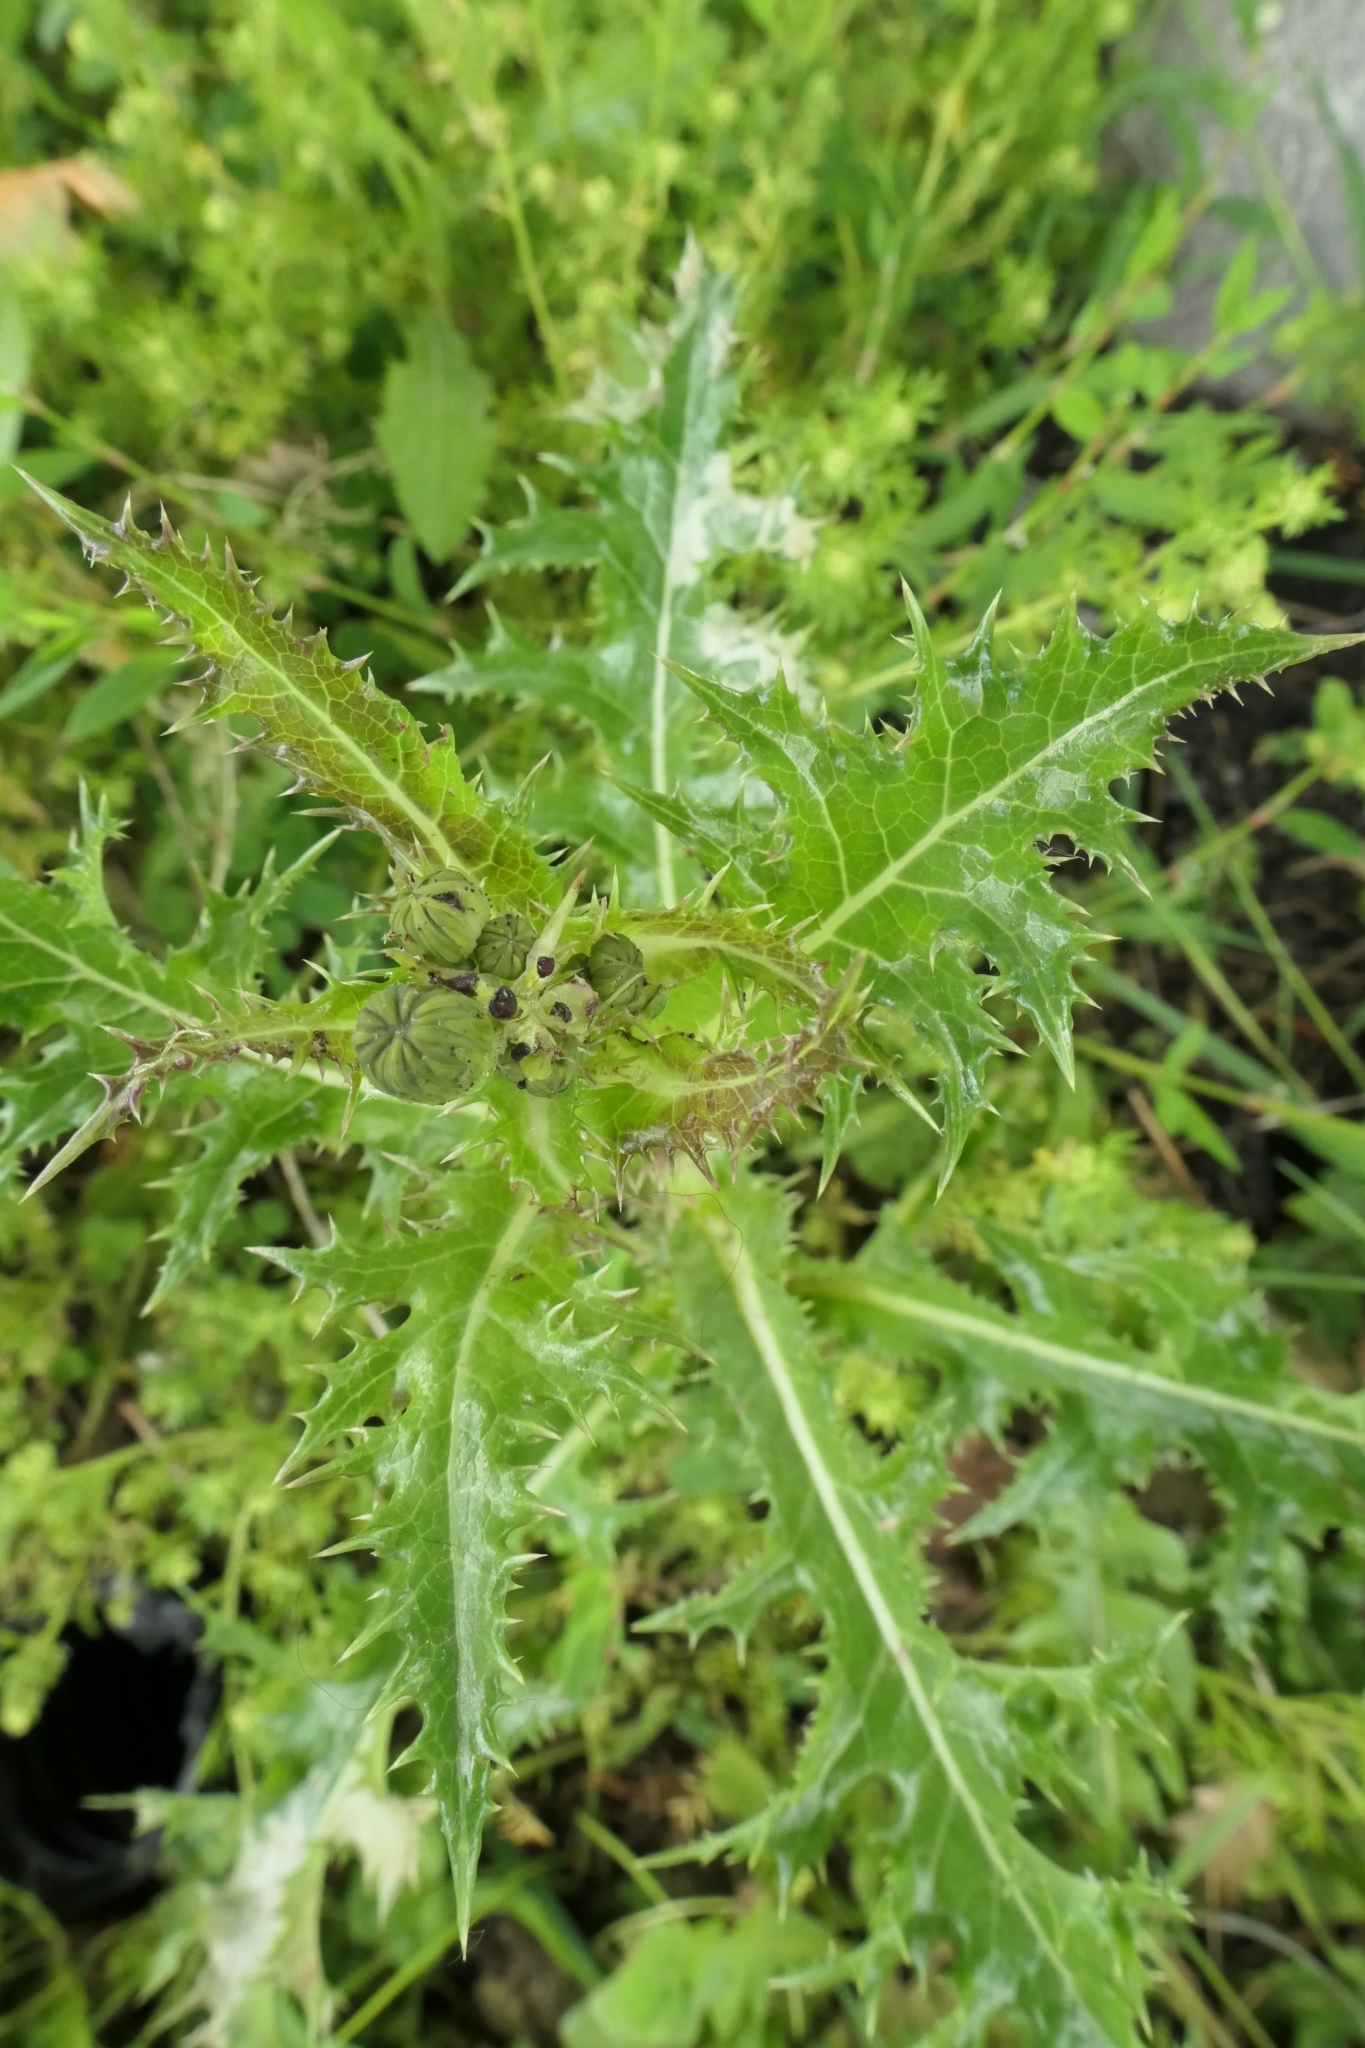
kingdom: Plantae
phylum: Tracheophyta
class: Magnoliopsida
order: Asterales
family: Asteraceae
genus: Sonchus
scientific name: Sonchus asper
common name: Prickly sow-thistle
